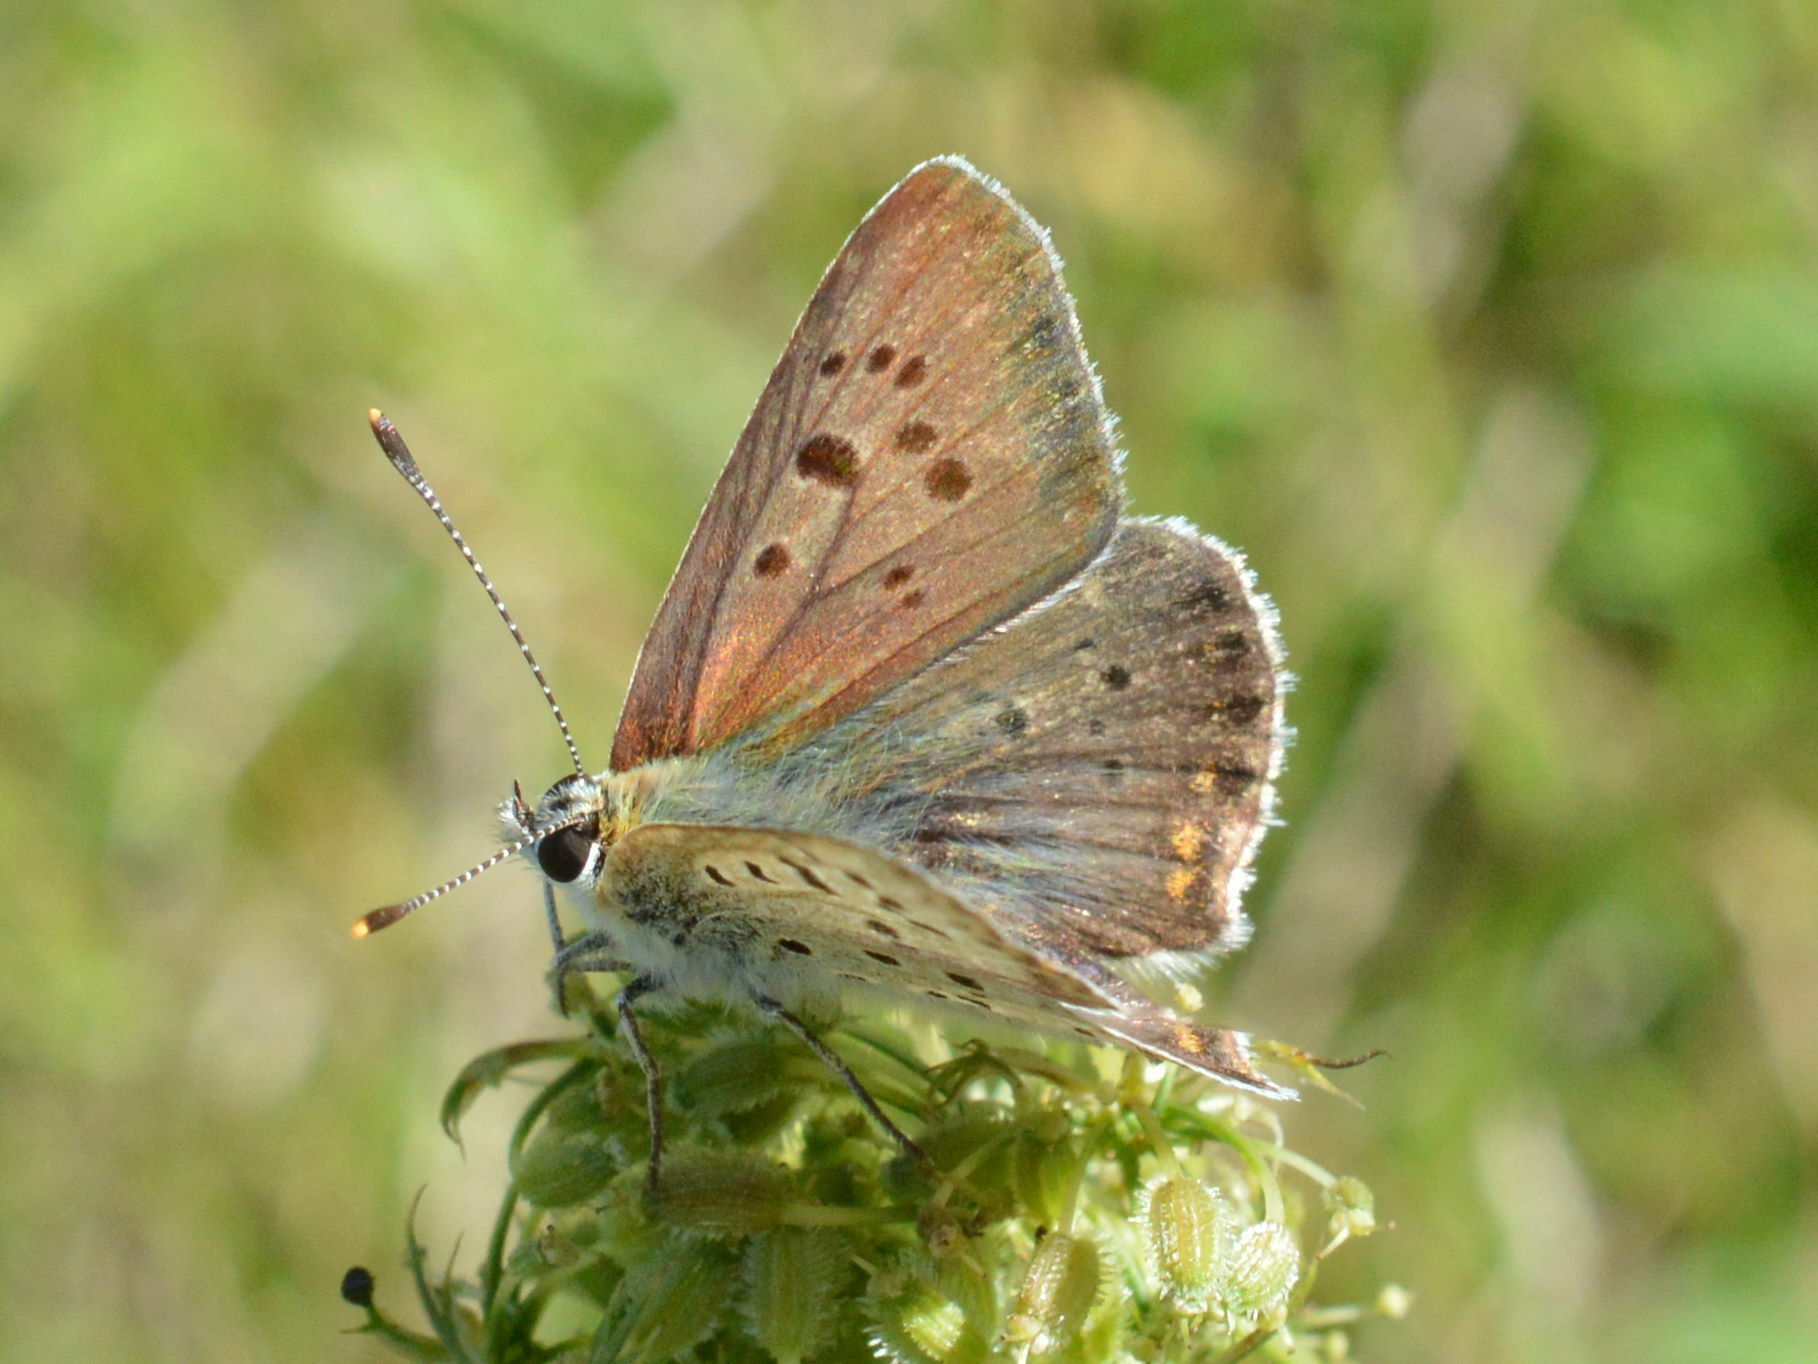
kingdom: Animalia
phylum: Arthropoda
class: Insecta
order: Lepidoptera
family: Lycaenidae
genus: Loweia
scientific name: Loweia tityrus
